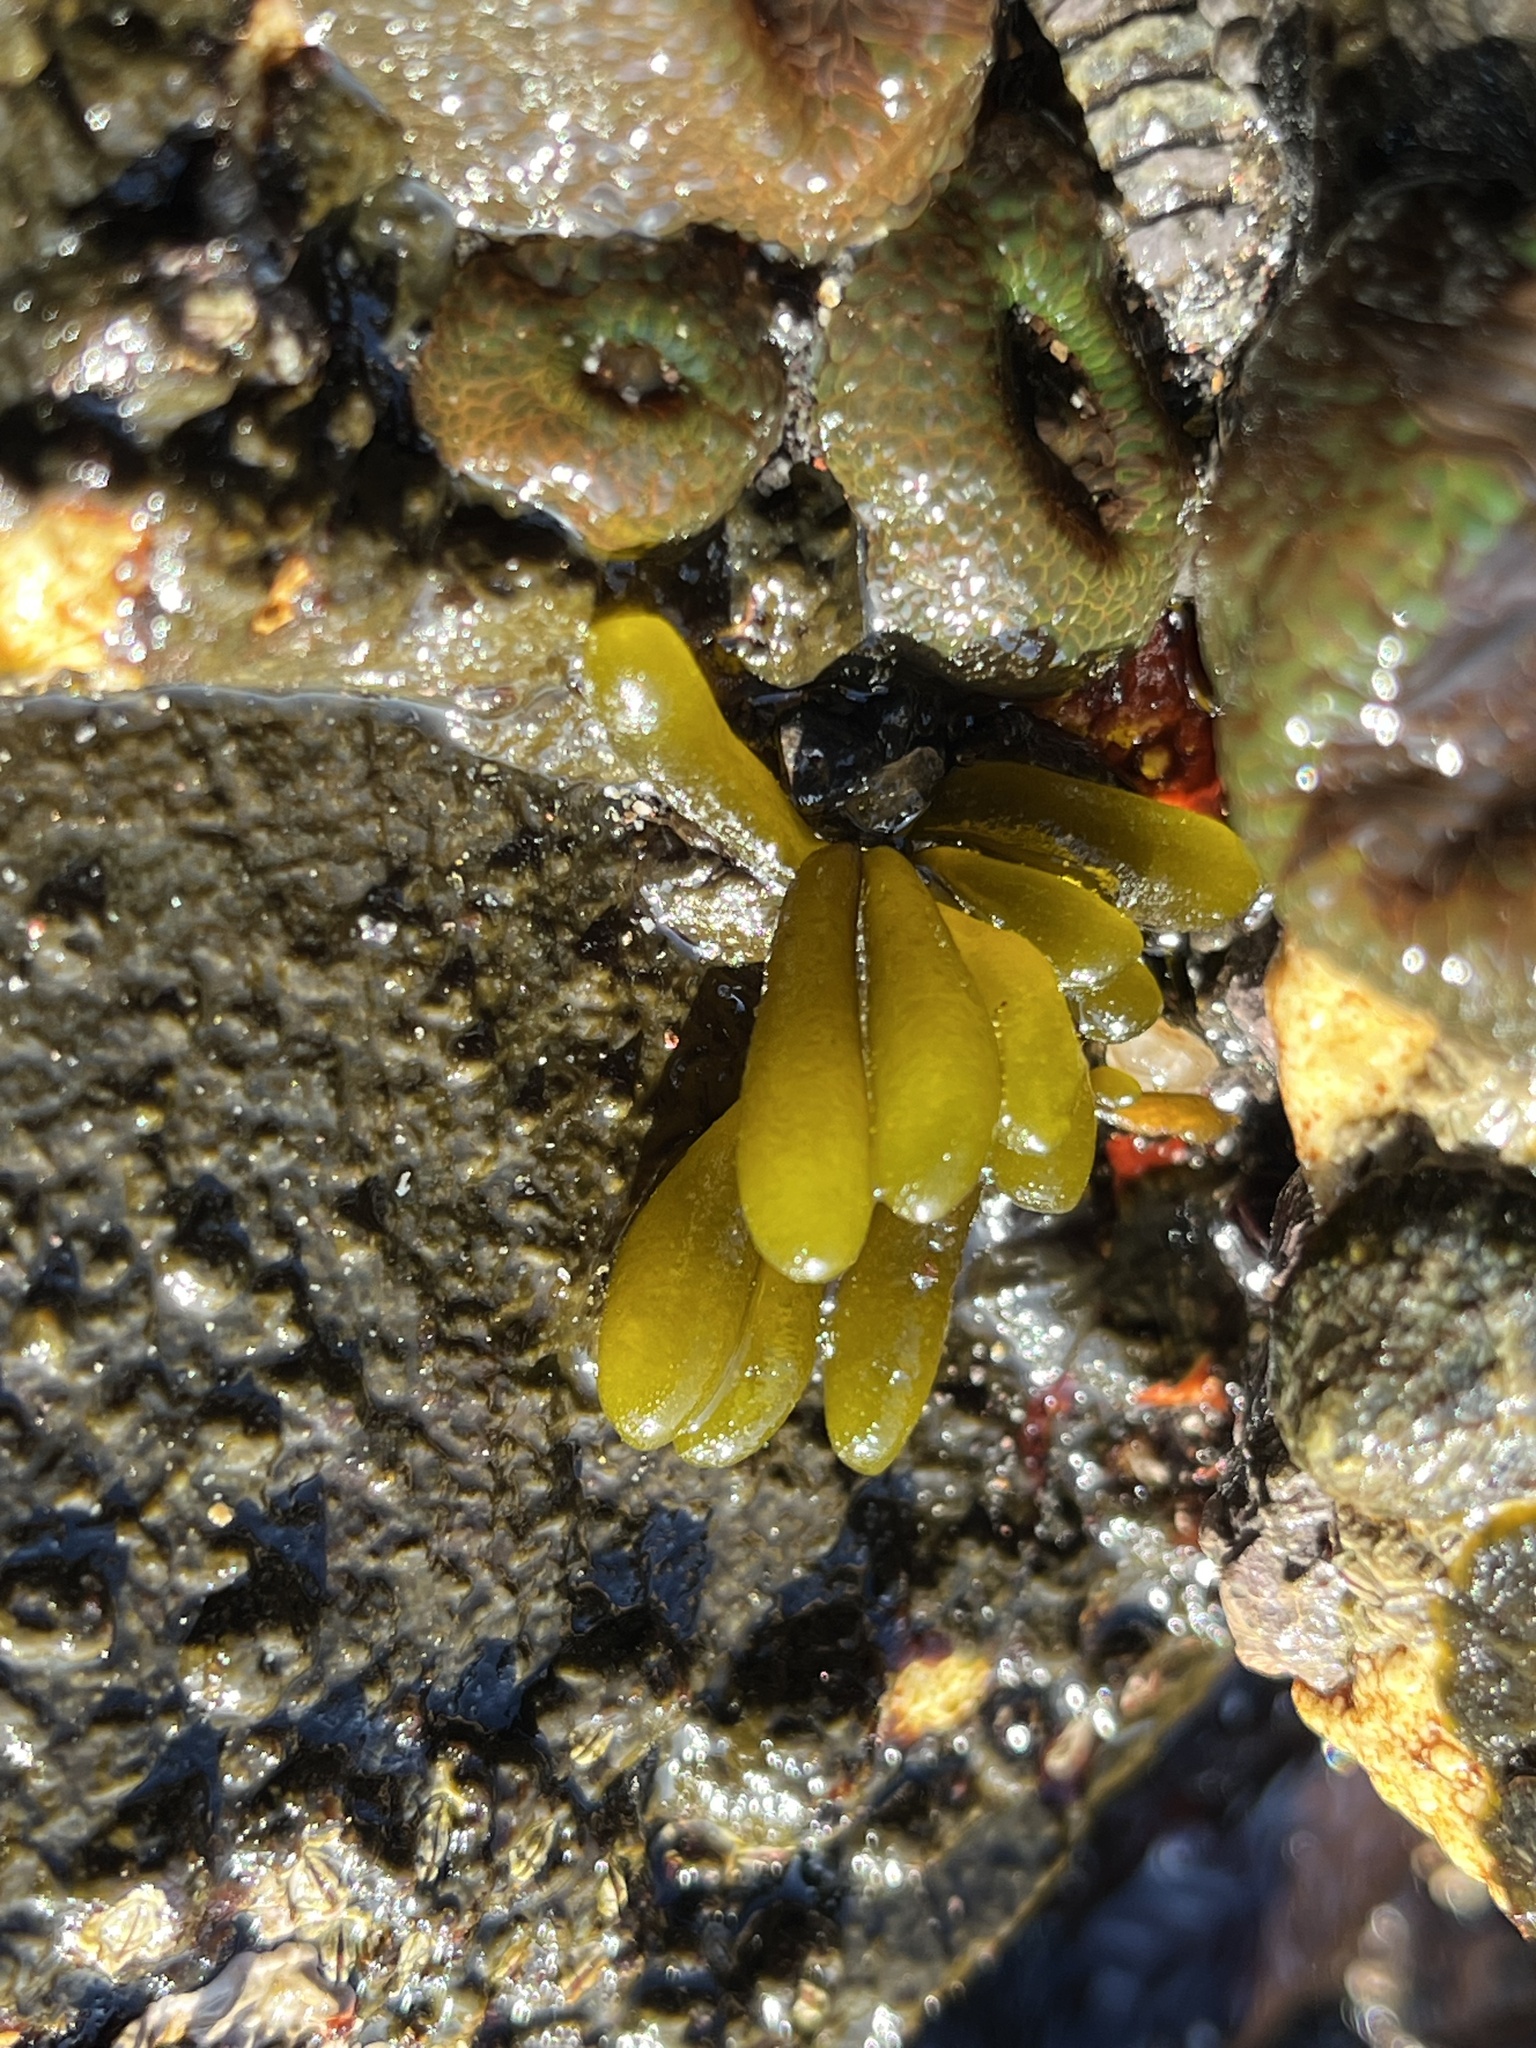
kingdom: Chromista
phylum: Ochrophyta
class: Phaeophyceae
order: Ectocarpales
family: Adenocystaceae
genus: Adenocystis
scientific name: Adenocystis utricularis
